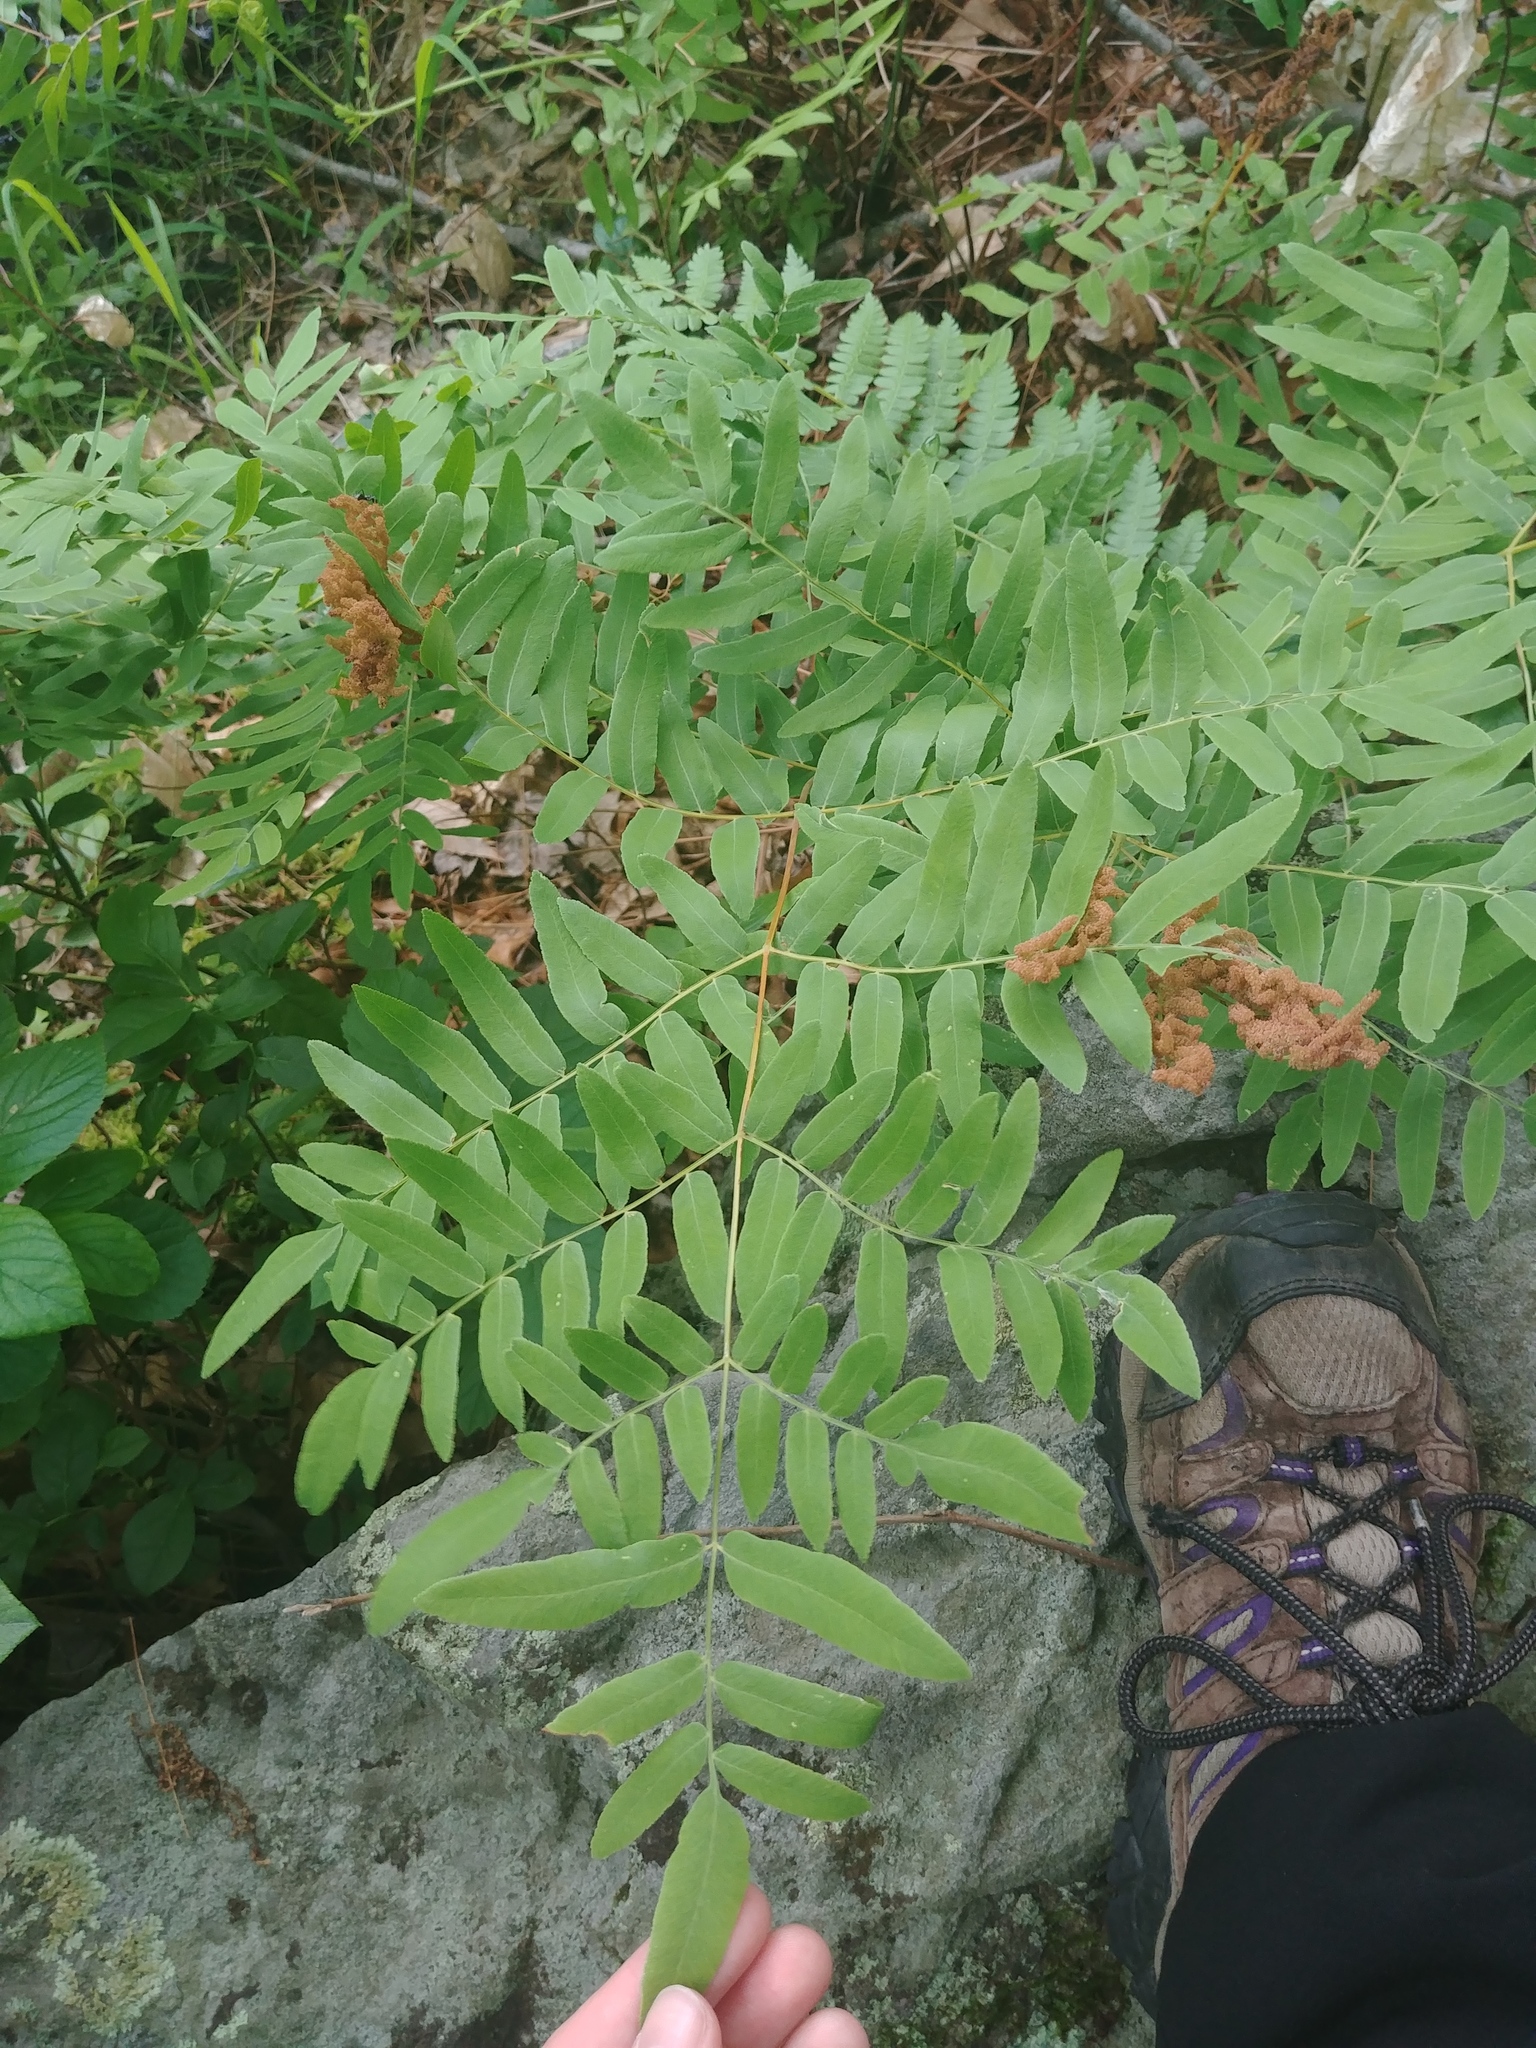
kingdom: Plantae
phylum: Tracheophyta
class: Polypodiopsida
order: Osmundales
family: Osmundaceae
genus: Osmunda
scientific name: Osmunda spectabilis
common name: American royal fern
